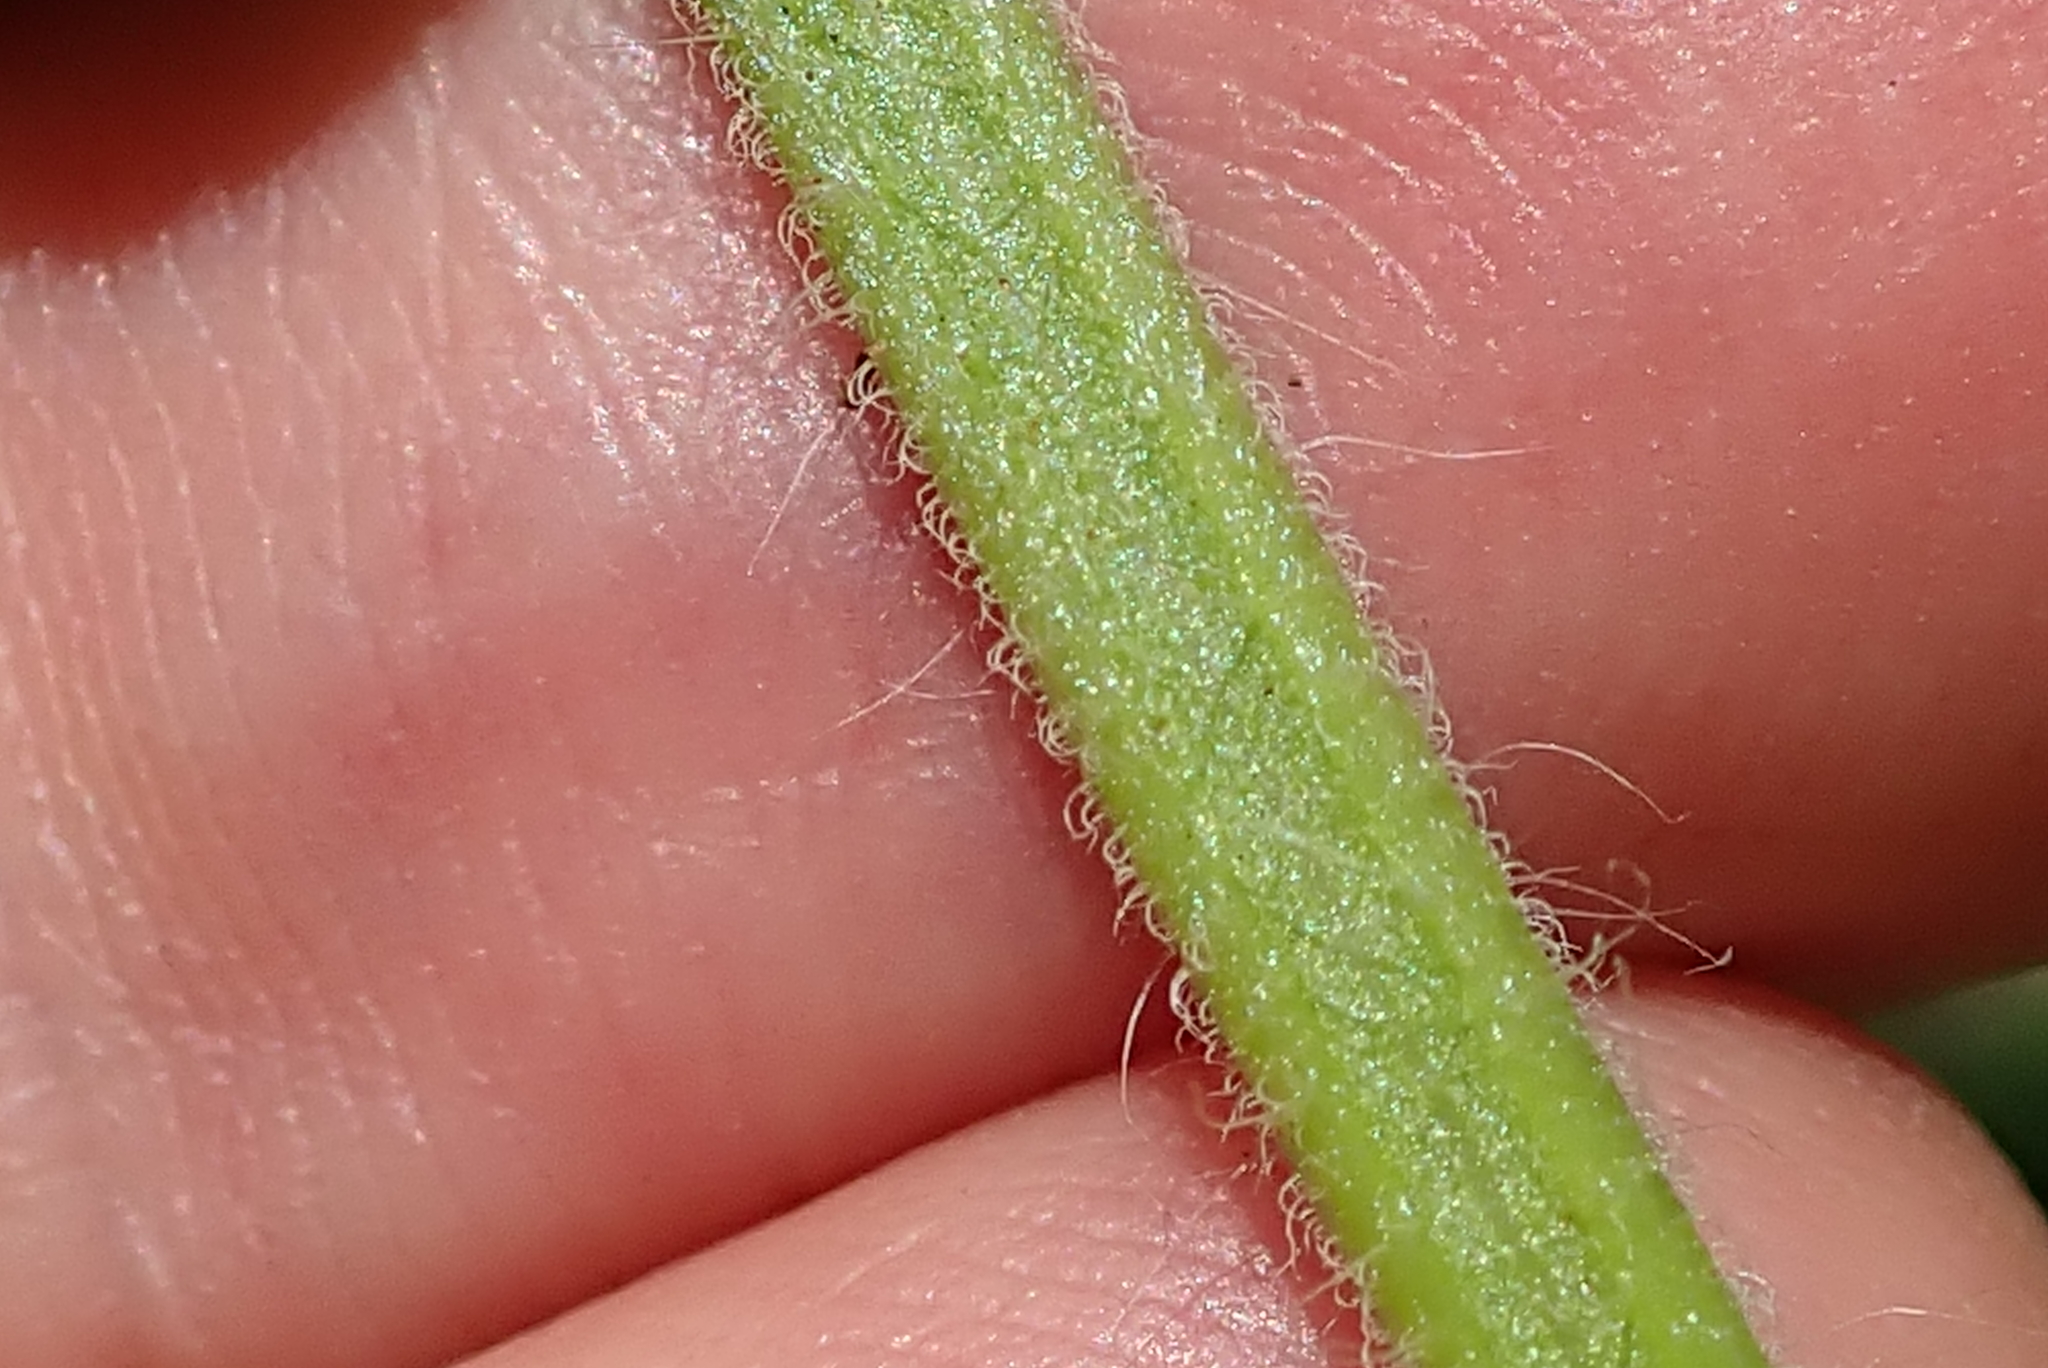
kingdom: Plantae
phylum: Tracheophyta
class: Magnoliopsida
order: Lamiales
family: Lamiaceae
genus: Salvia
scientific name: Salvia coccinea
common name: Blood sage
